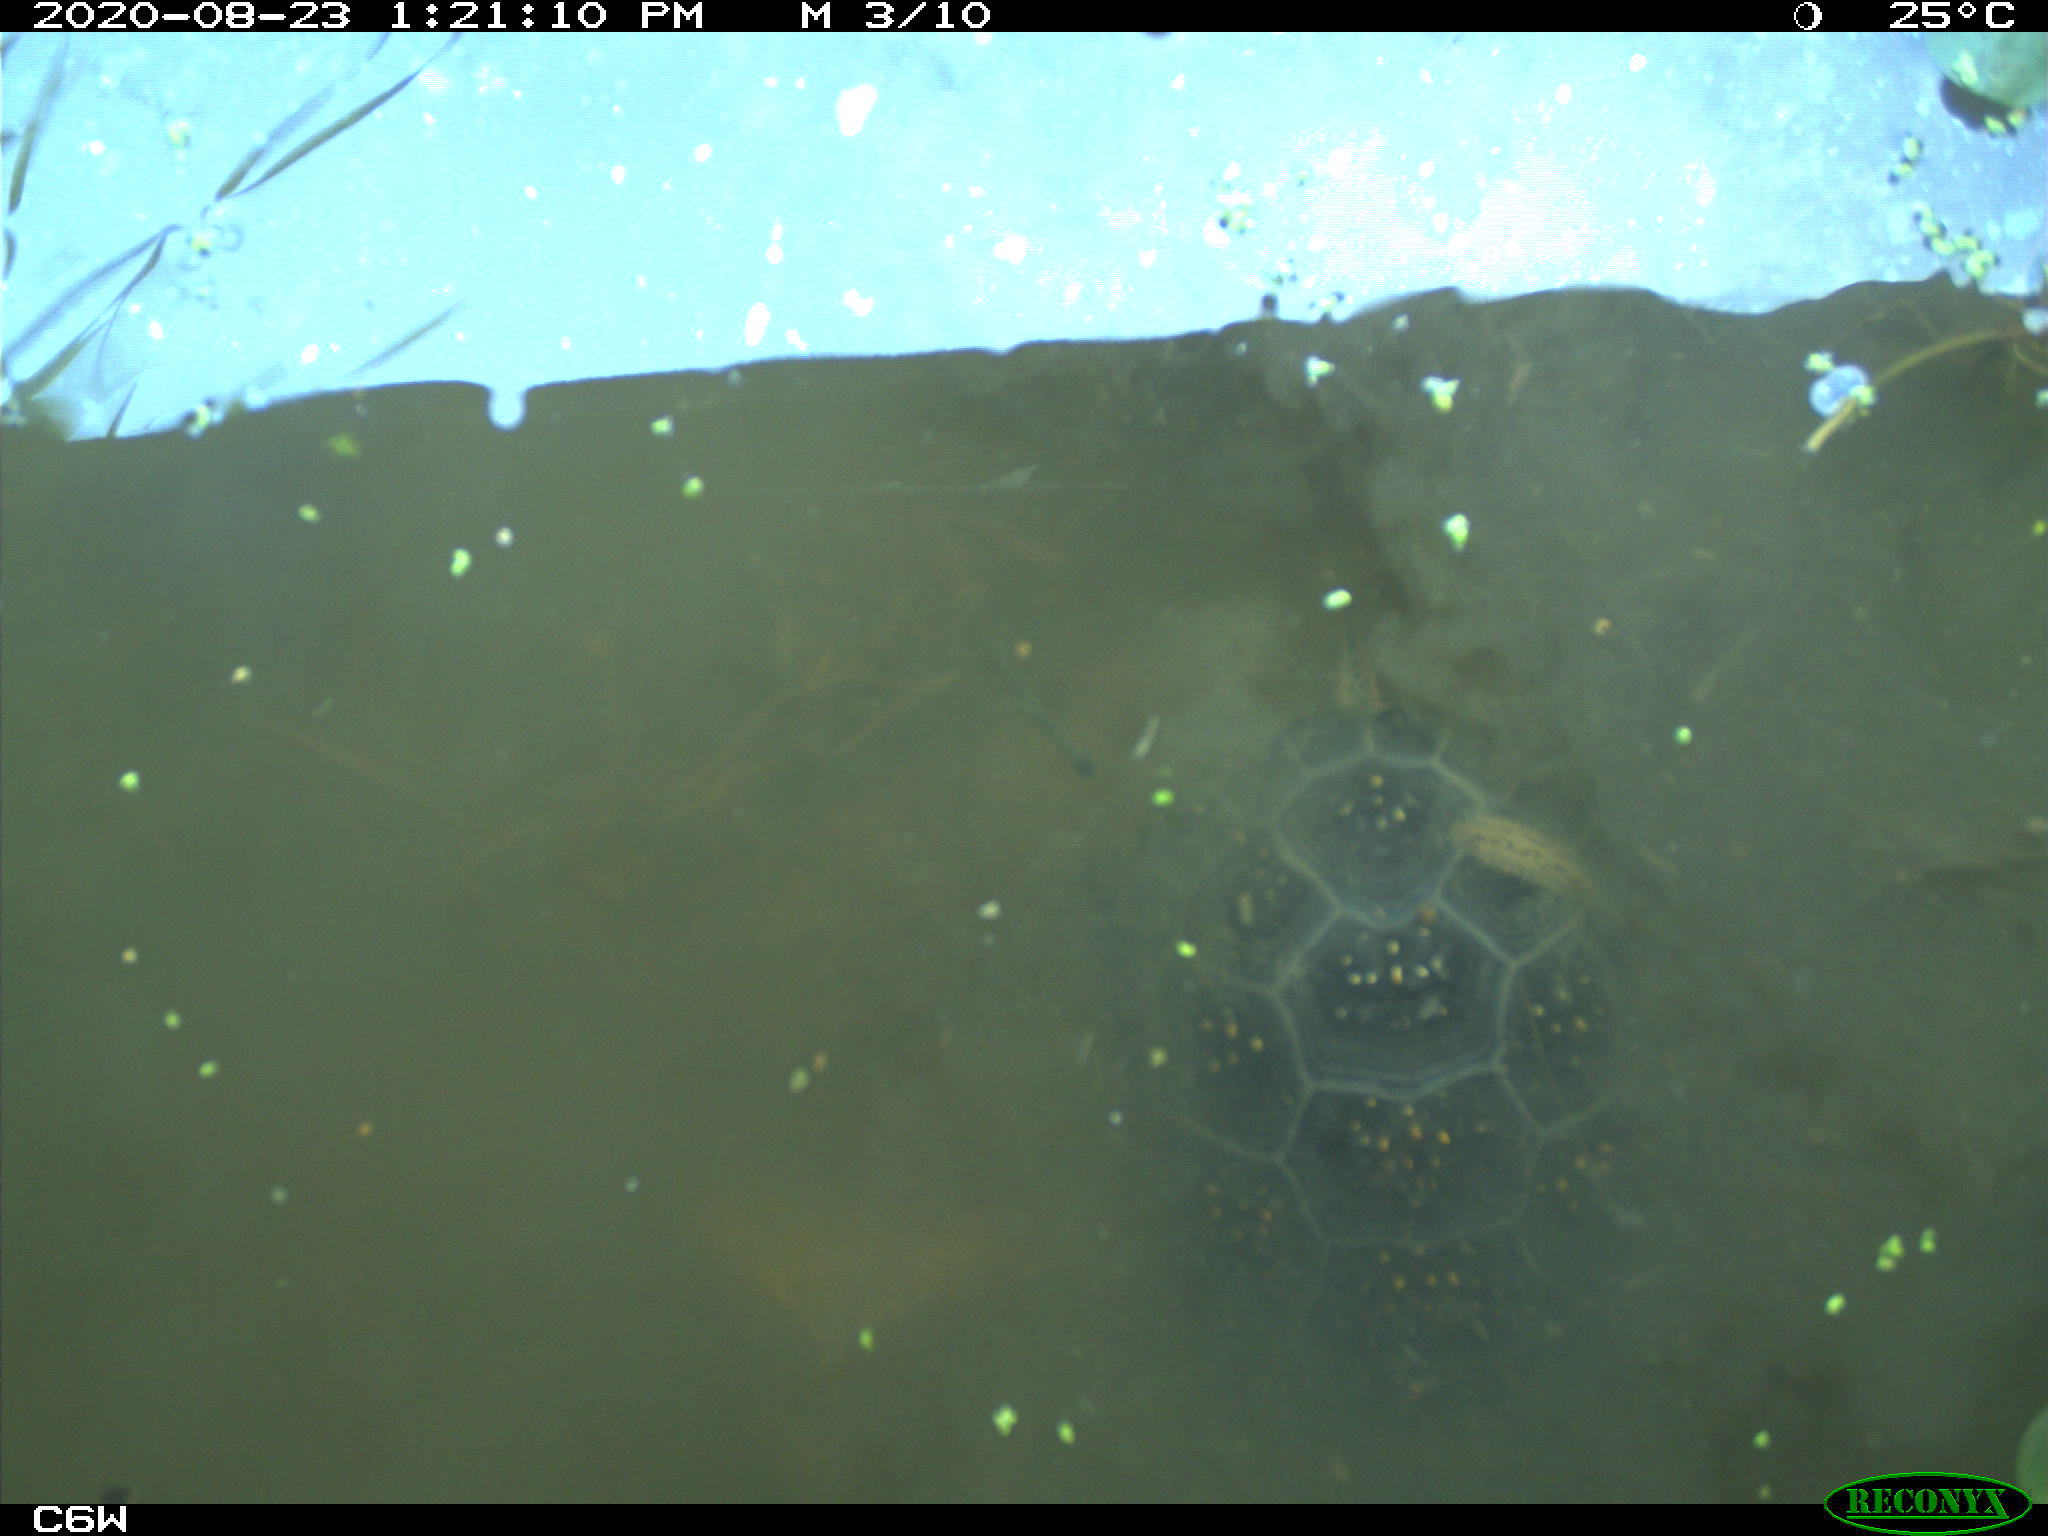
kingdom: Animalia
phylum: Chordata
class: Testudines
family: Emydidae
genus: Emys
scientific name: Emys blandingii
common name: Blanding's turtle
